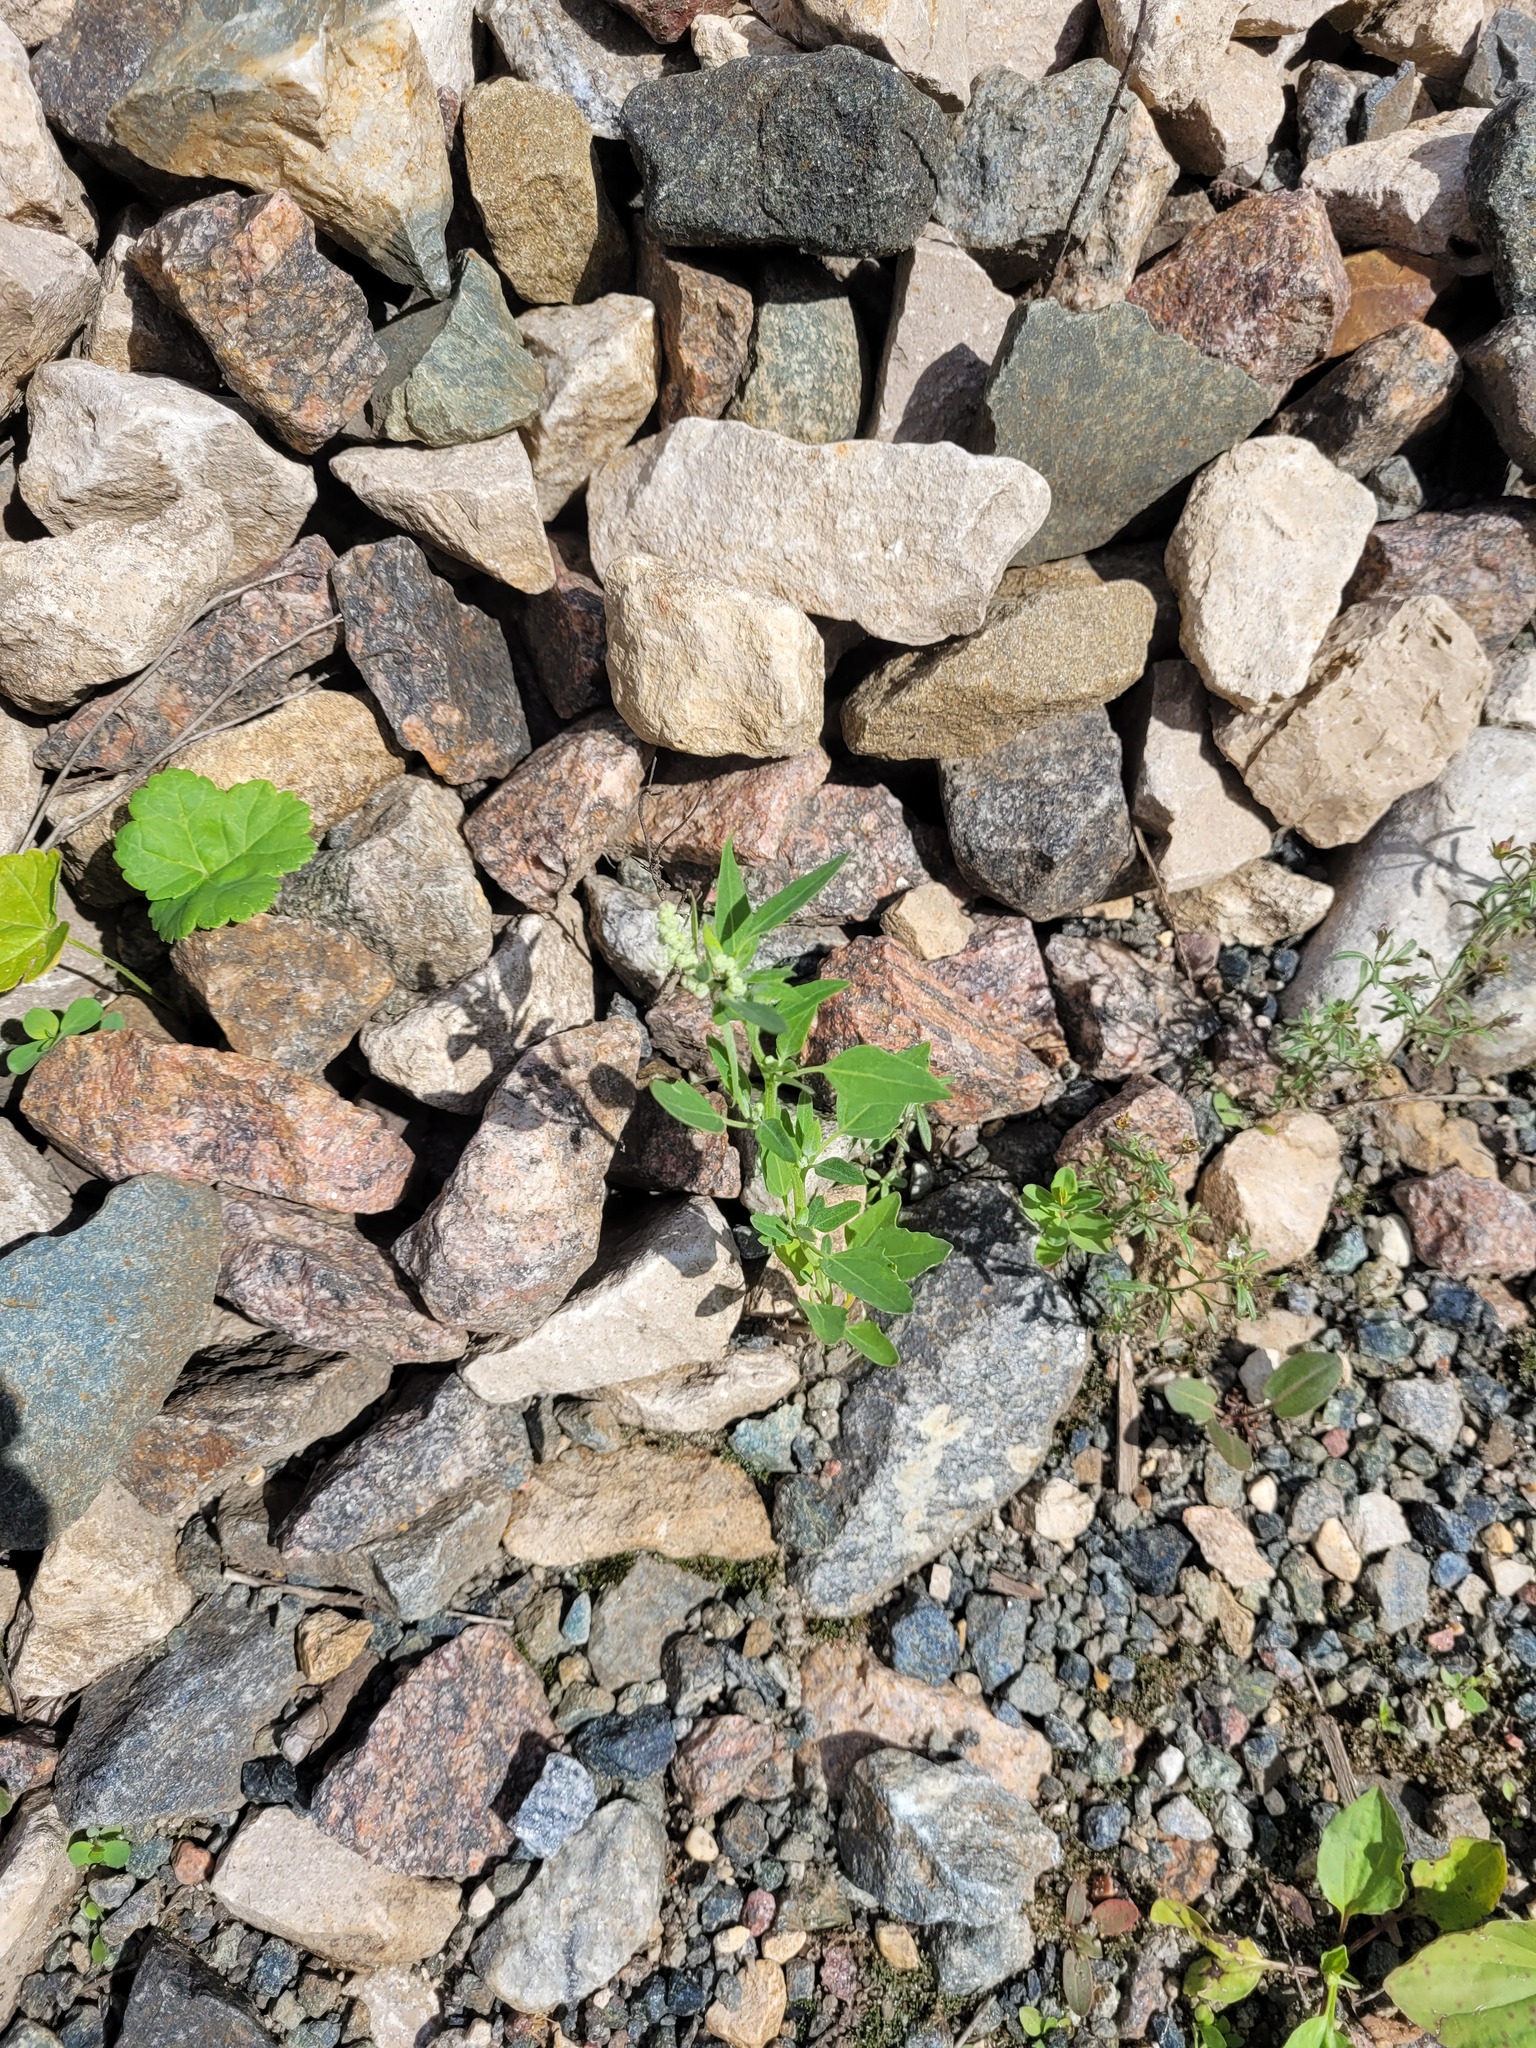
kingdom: Plantae
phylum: Tracheophyta
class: Magnoliopsida
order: Caryophyllales
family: Amaranthaceae
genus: Chenopodium
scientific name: Chenopodium album
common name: Fat-hen
